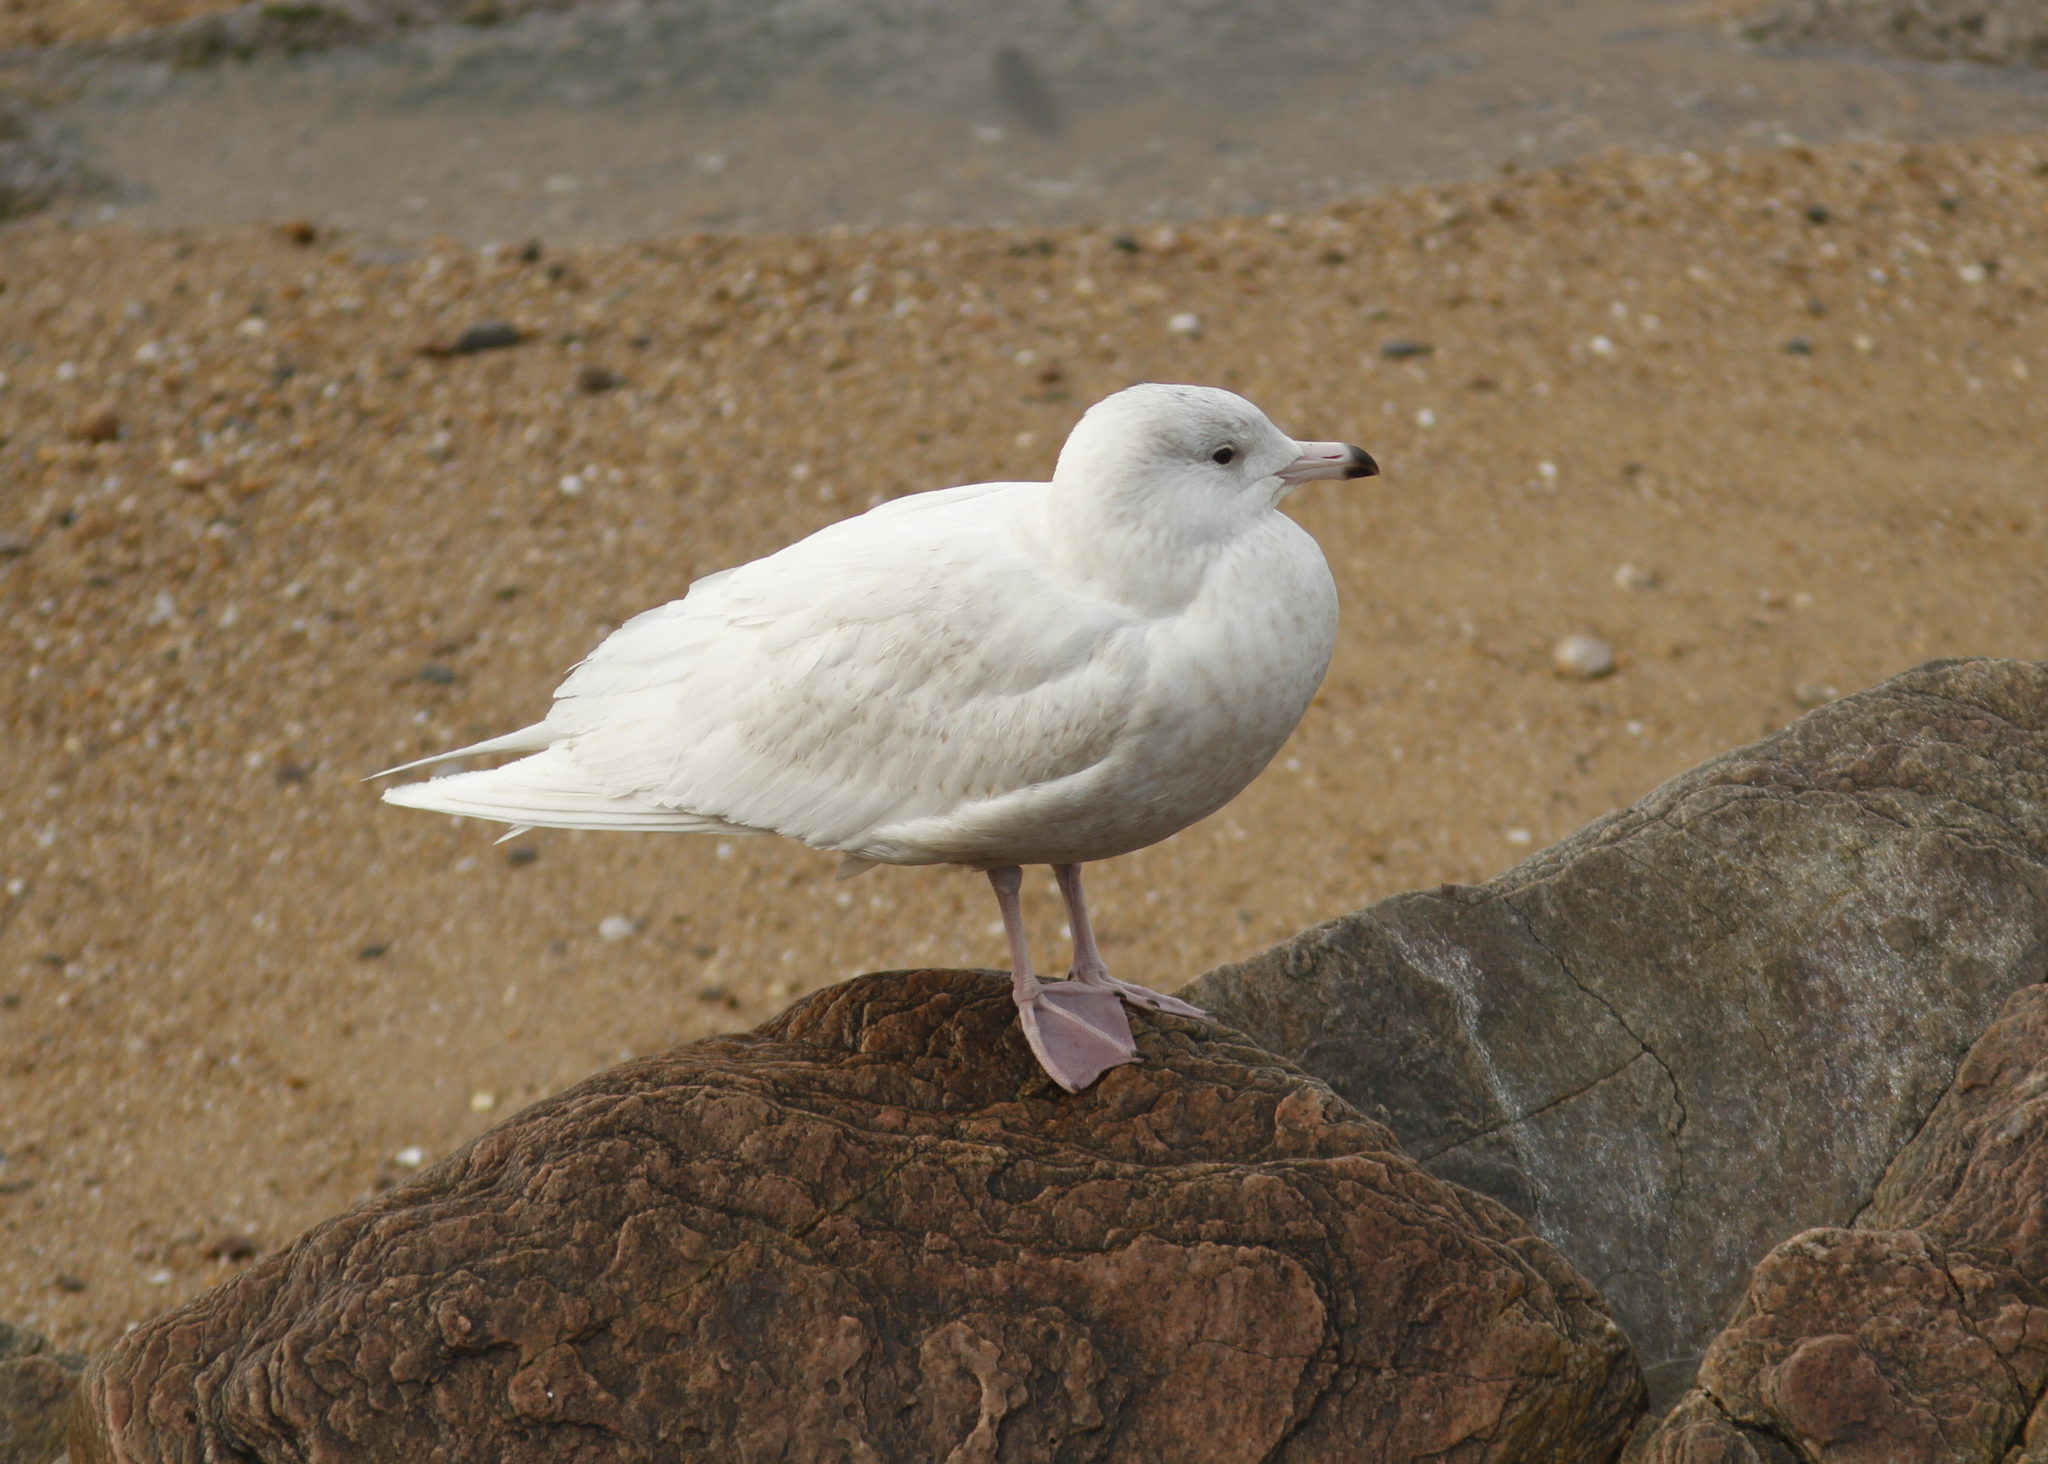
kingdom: Animalia
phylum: Chordata
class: Aves
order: Charadriiformes
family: Laridae
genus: Larus
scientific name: Larus hyperboreus
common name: Glaucous gull
